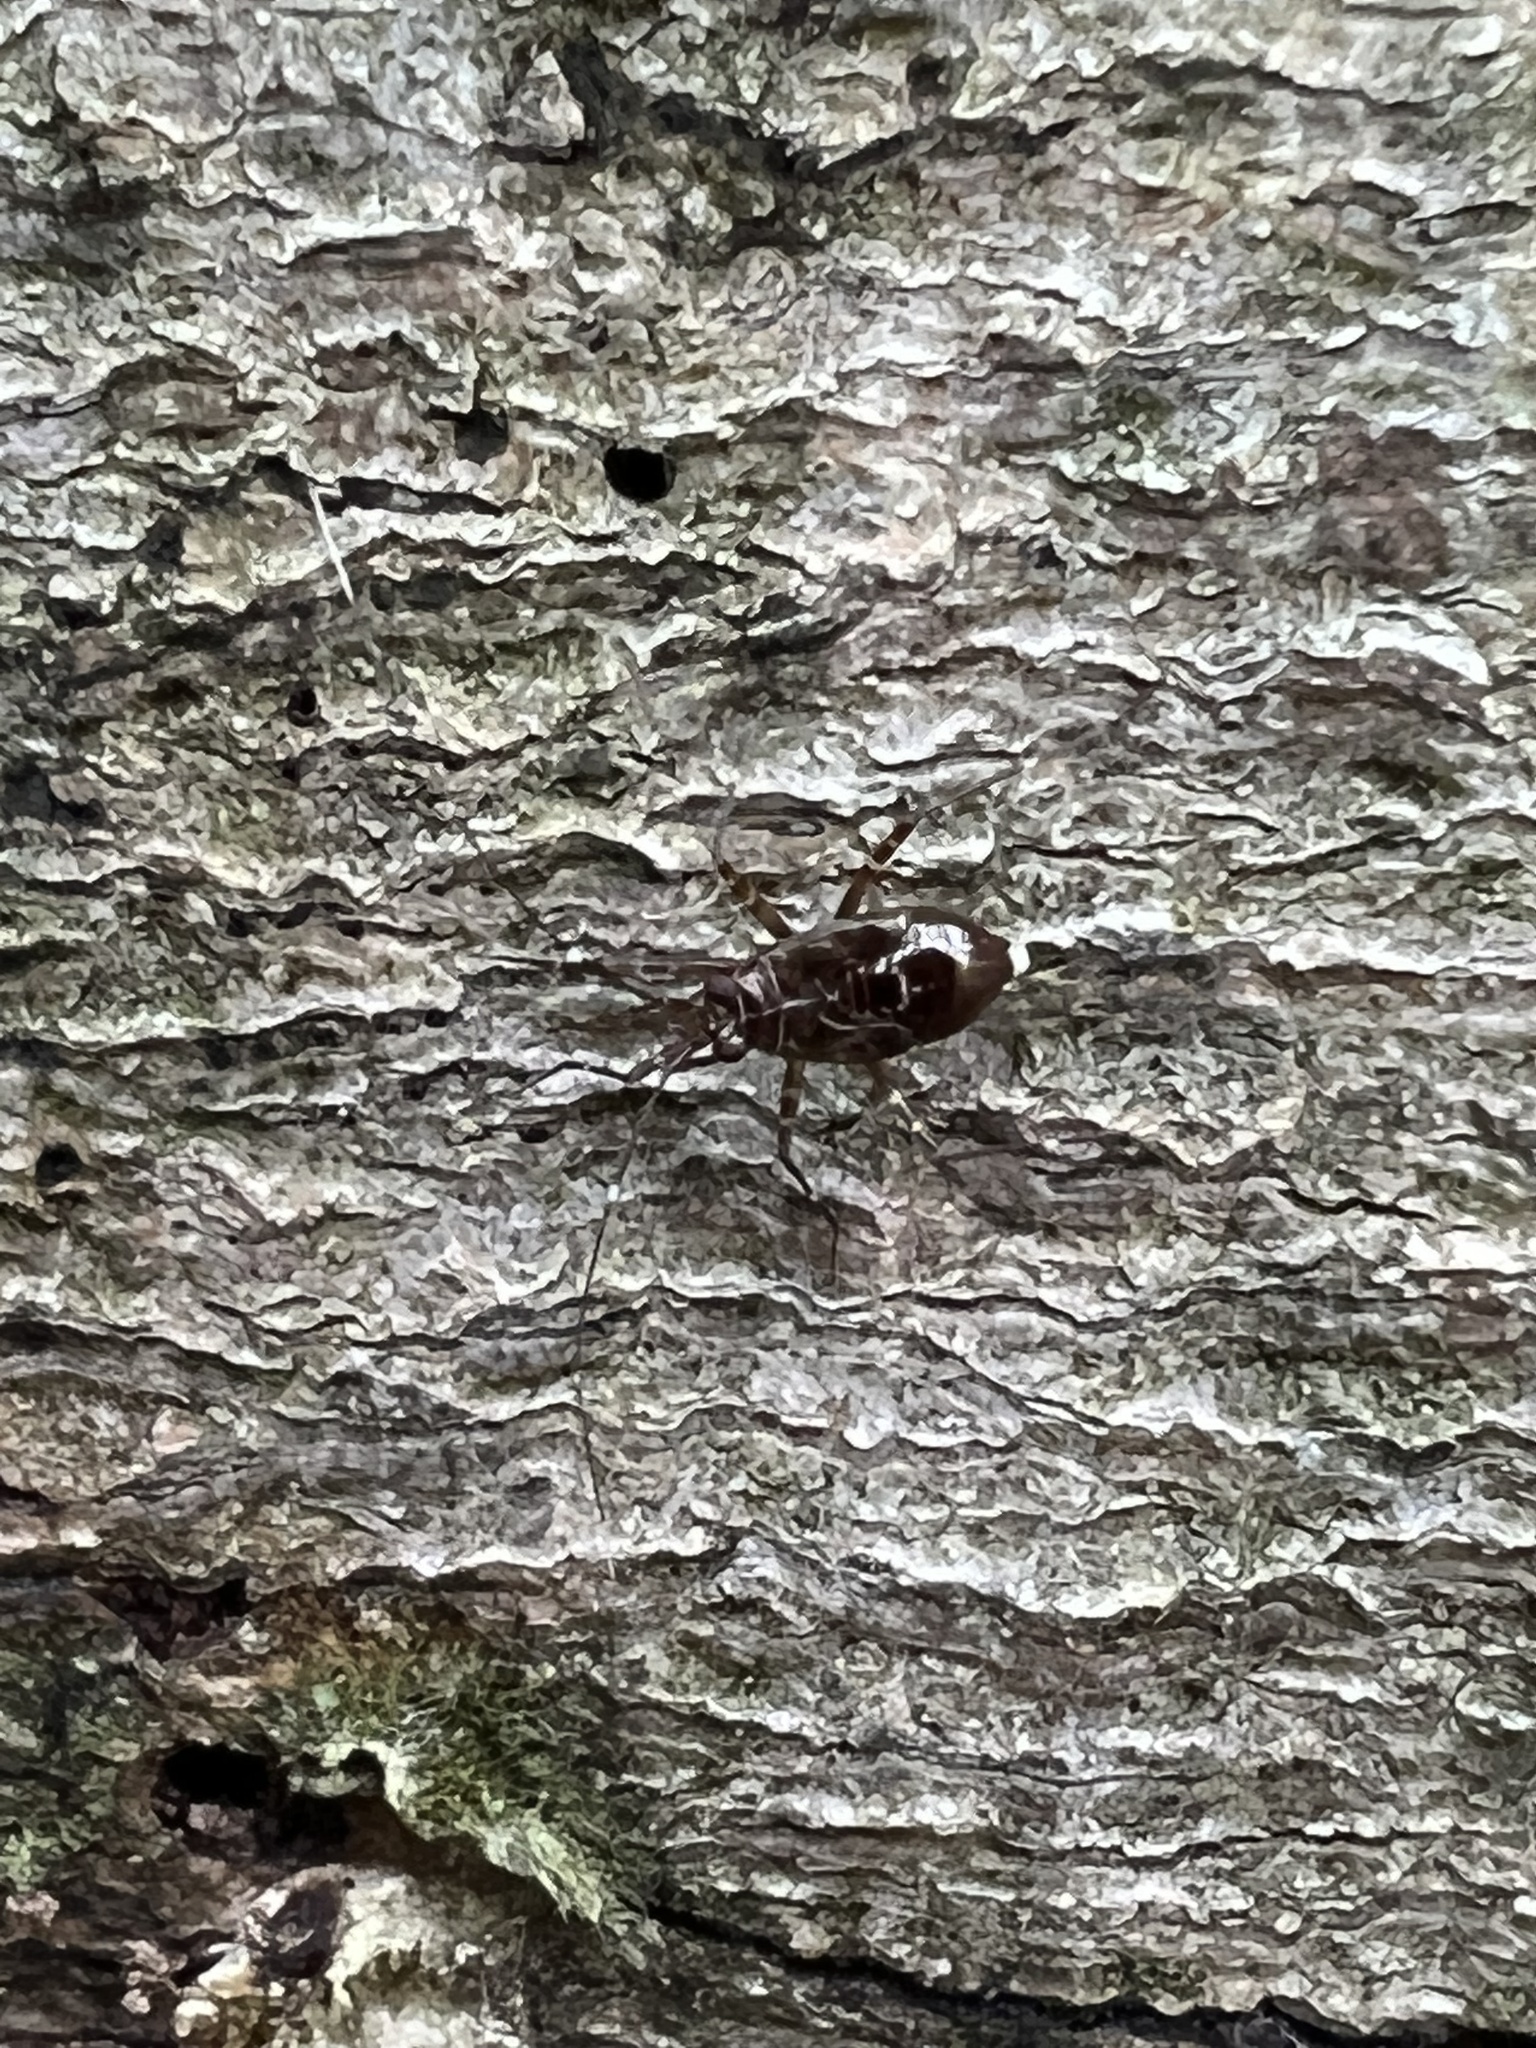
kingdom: Animalia
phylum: Arthropoda
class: Insecta
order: Hemiptera
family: Miridae
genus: Cylapus
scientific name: Cylapus tenuicornis
